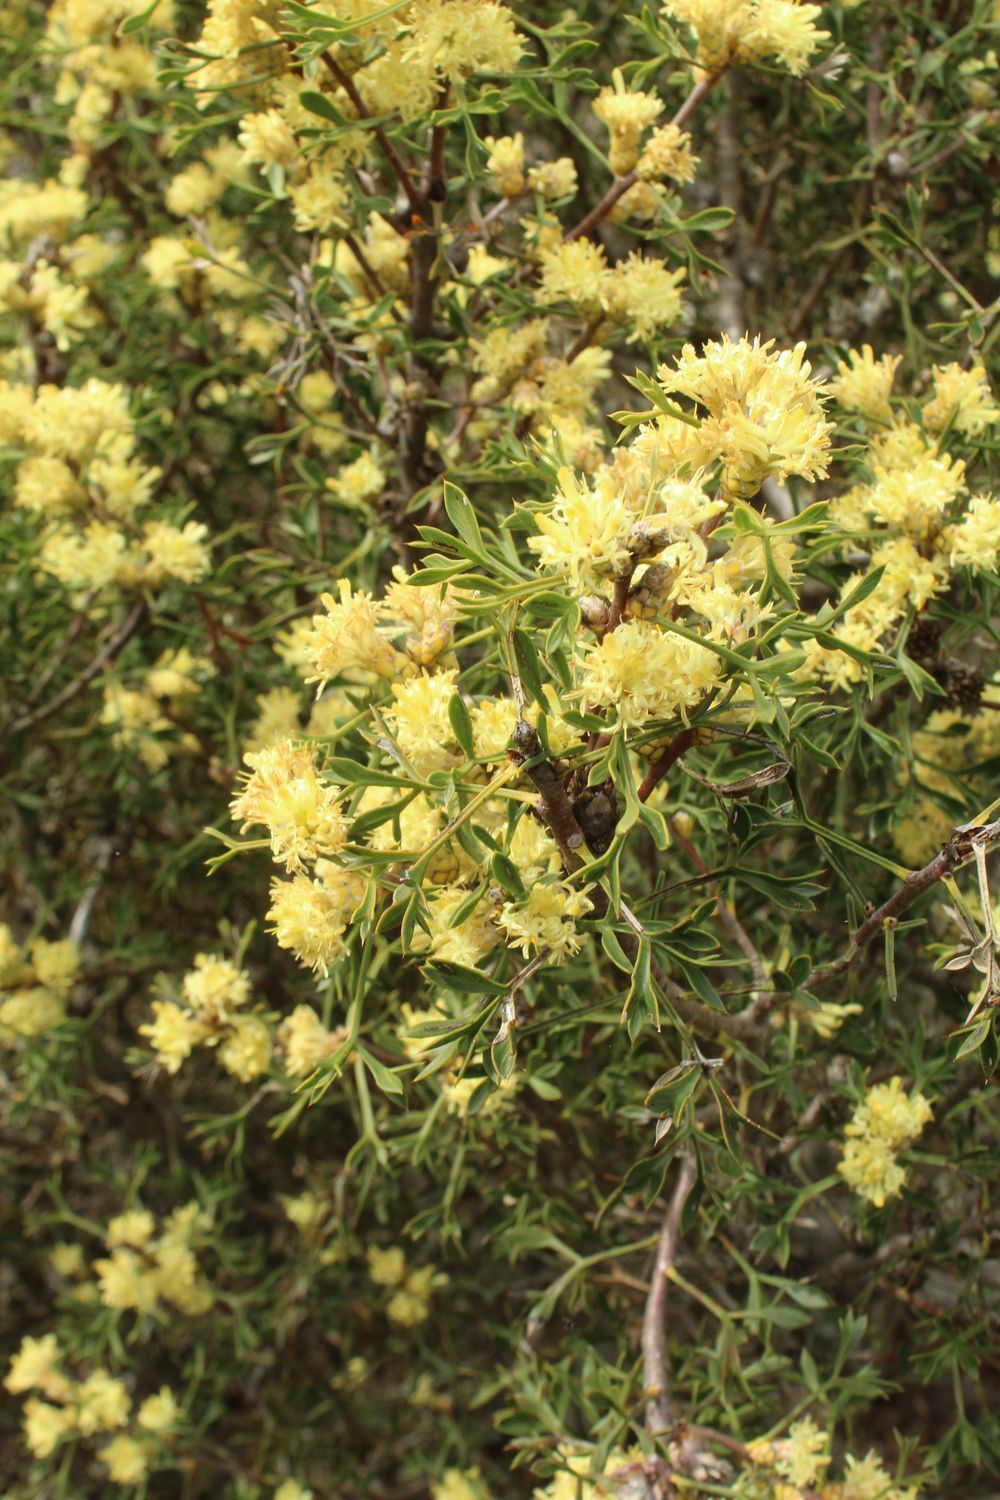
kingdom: Plantae
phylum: Tracheophyta
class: Magnoliopsida
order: Proteales
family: Proteaceae
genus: Petrophile
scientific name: Petrophile squamata
